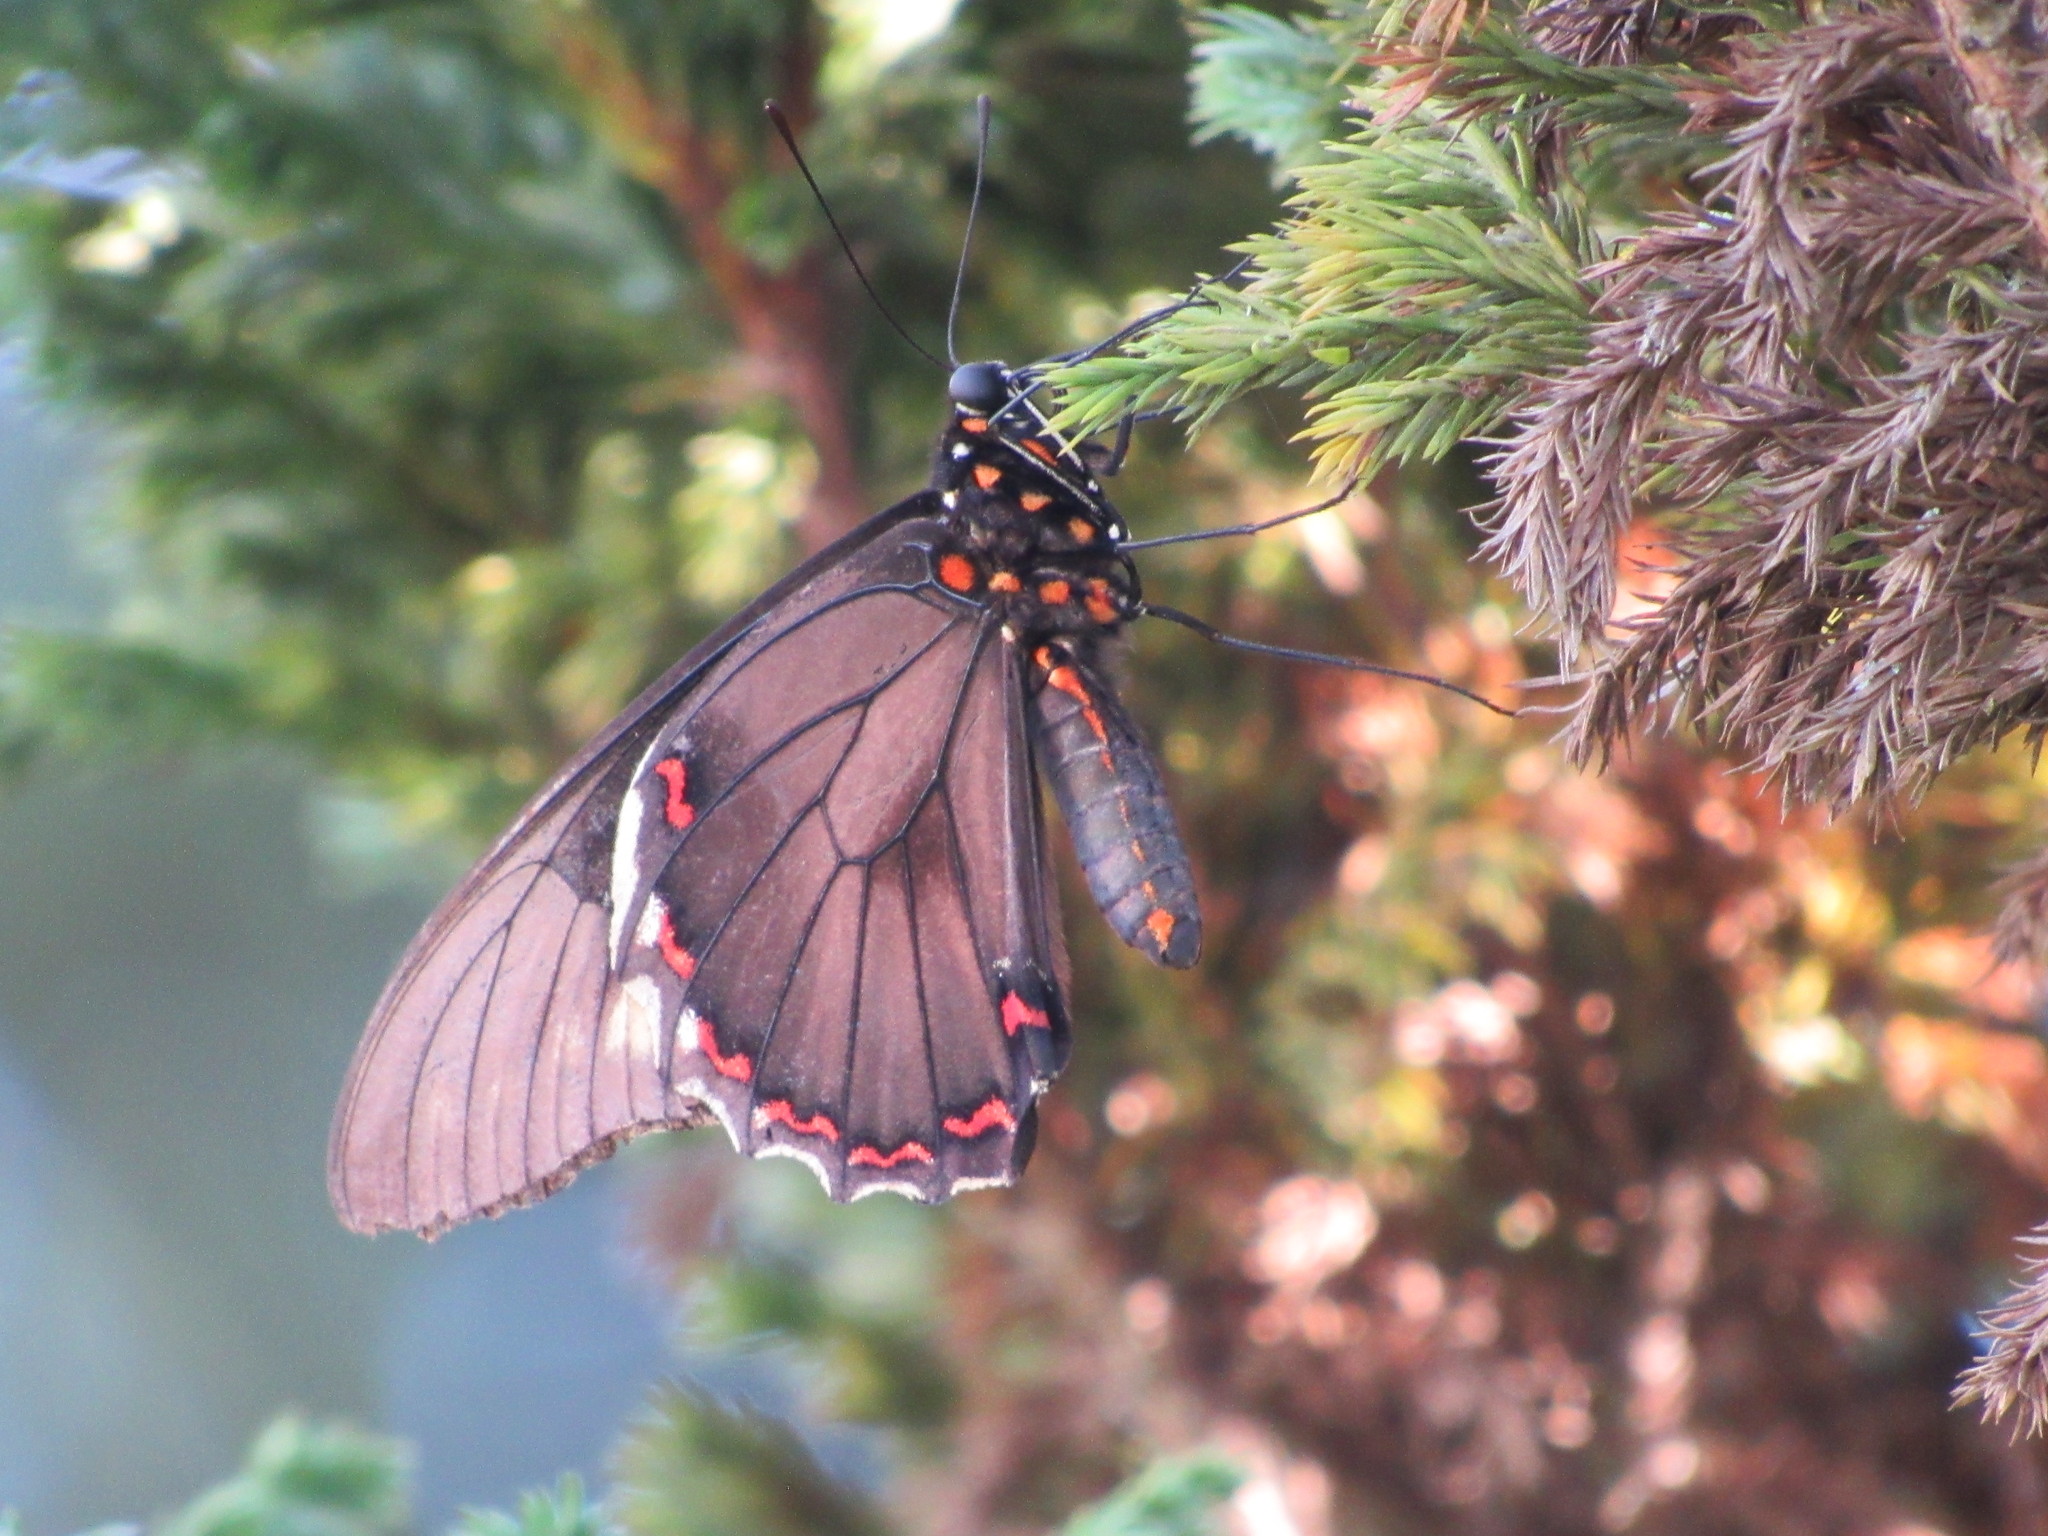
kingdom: Animalia
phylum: Arthropoda
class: Insecta
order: Lepidoptera
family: Papilionidae
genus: Battus
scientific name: Battus polydamas
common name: Polydamas swallowtail
